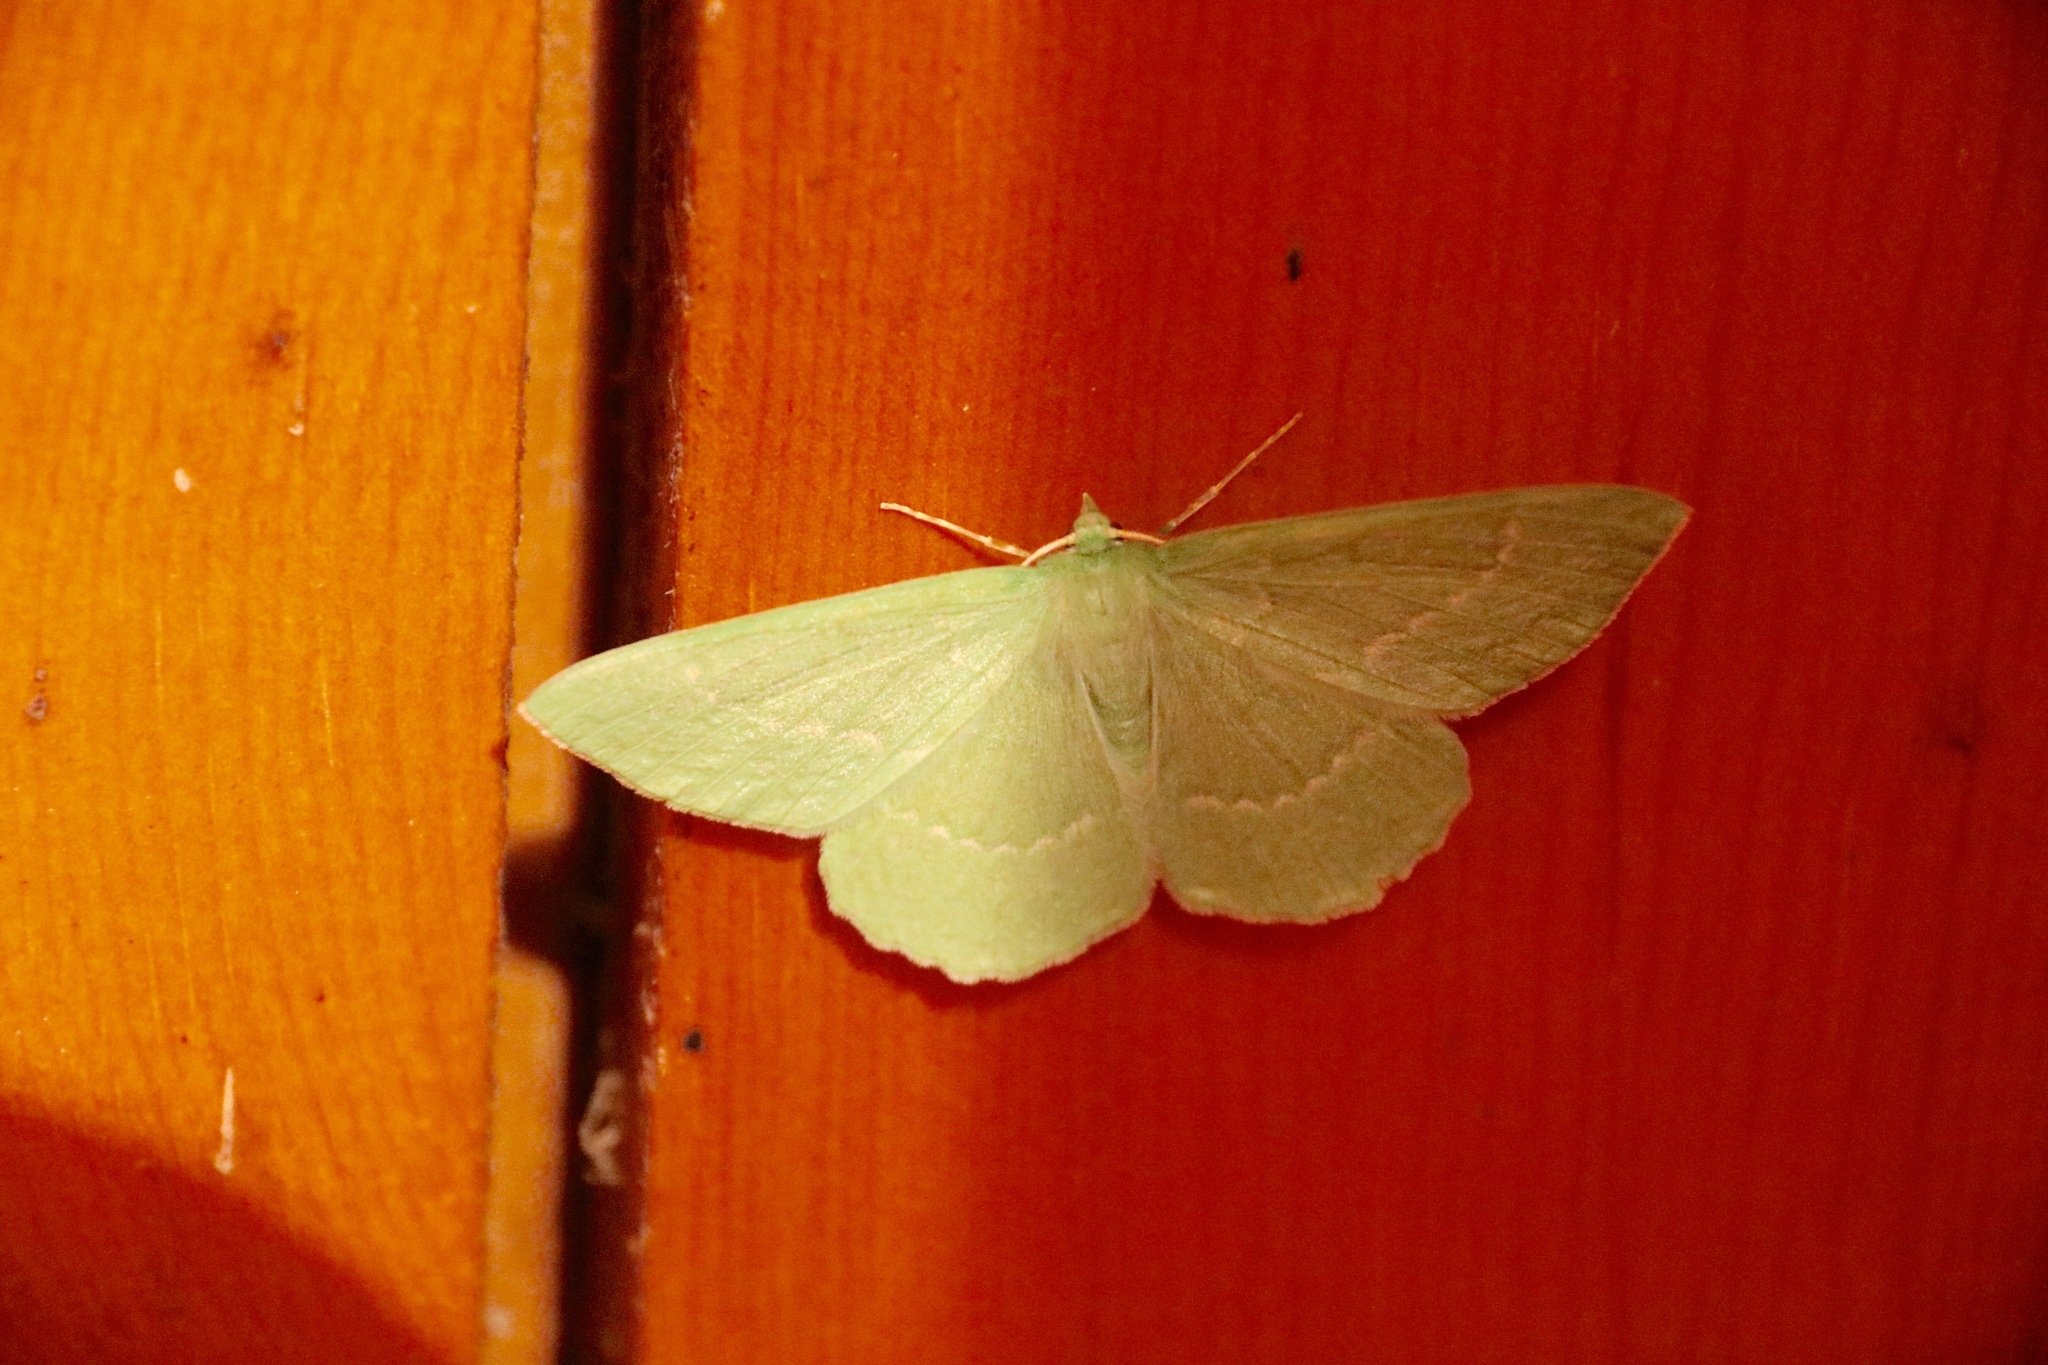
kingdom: Animalia
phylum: Arthropoda
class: Insecta
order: Lepidoptera
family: Geometridae
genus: Geometra
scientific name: Geometra papilionaria
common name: Large emerald
